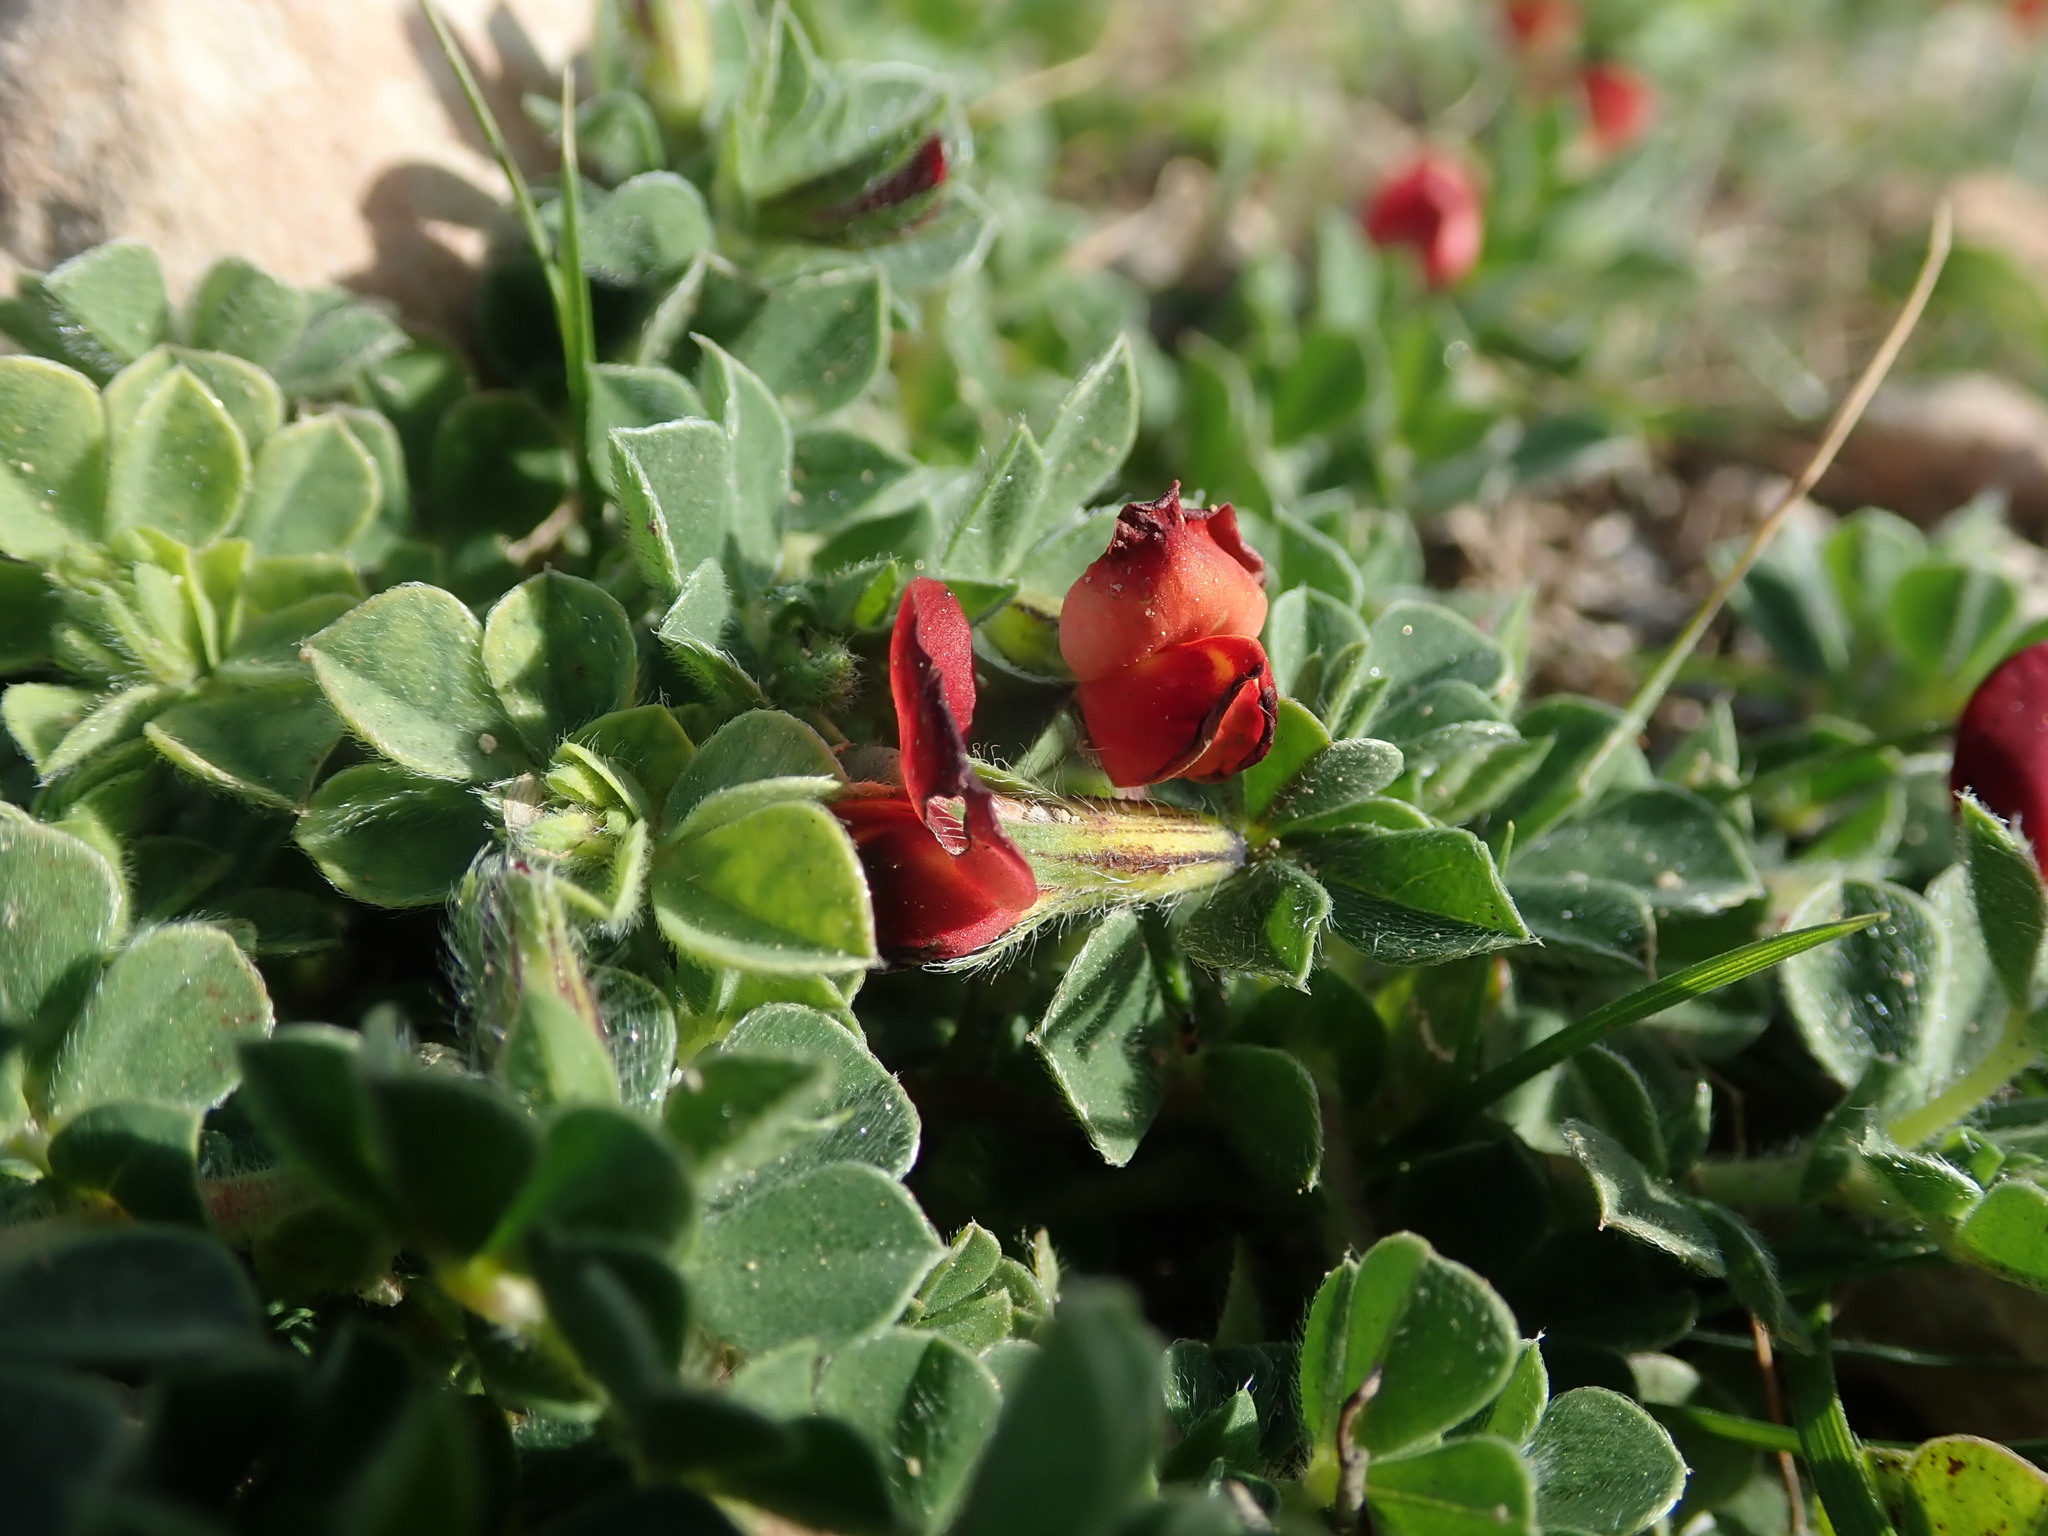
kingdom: Plantae
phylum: Tracheophyta
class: Magnoliopsida
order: Fabales
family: Fabaceae
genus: Lotus
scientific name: Lotus tetragonolobus
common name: Asparagus-pea
